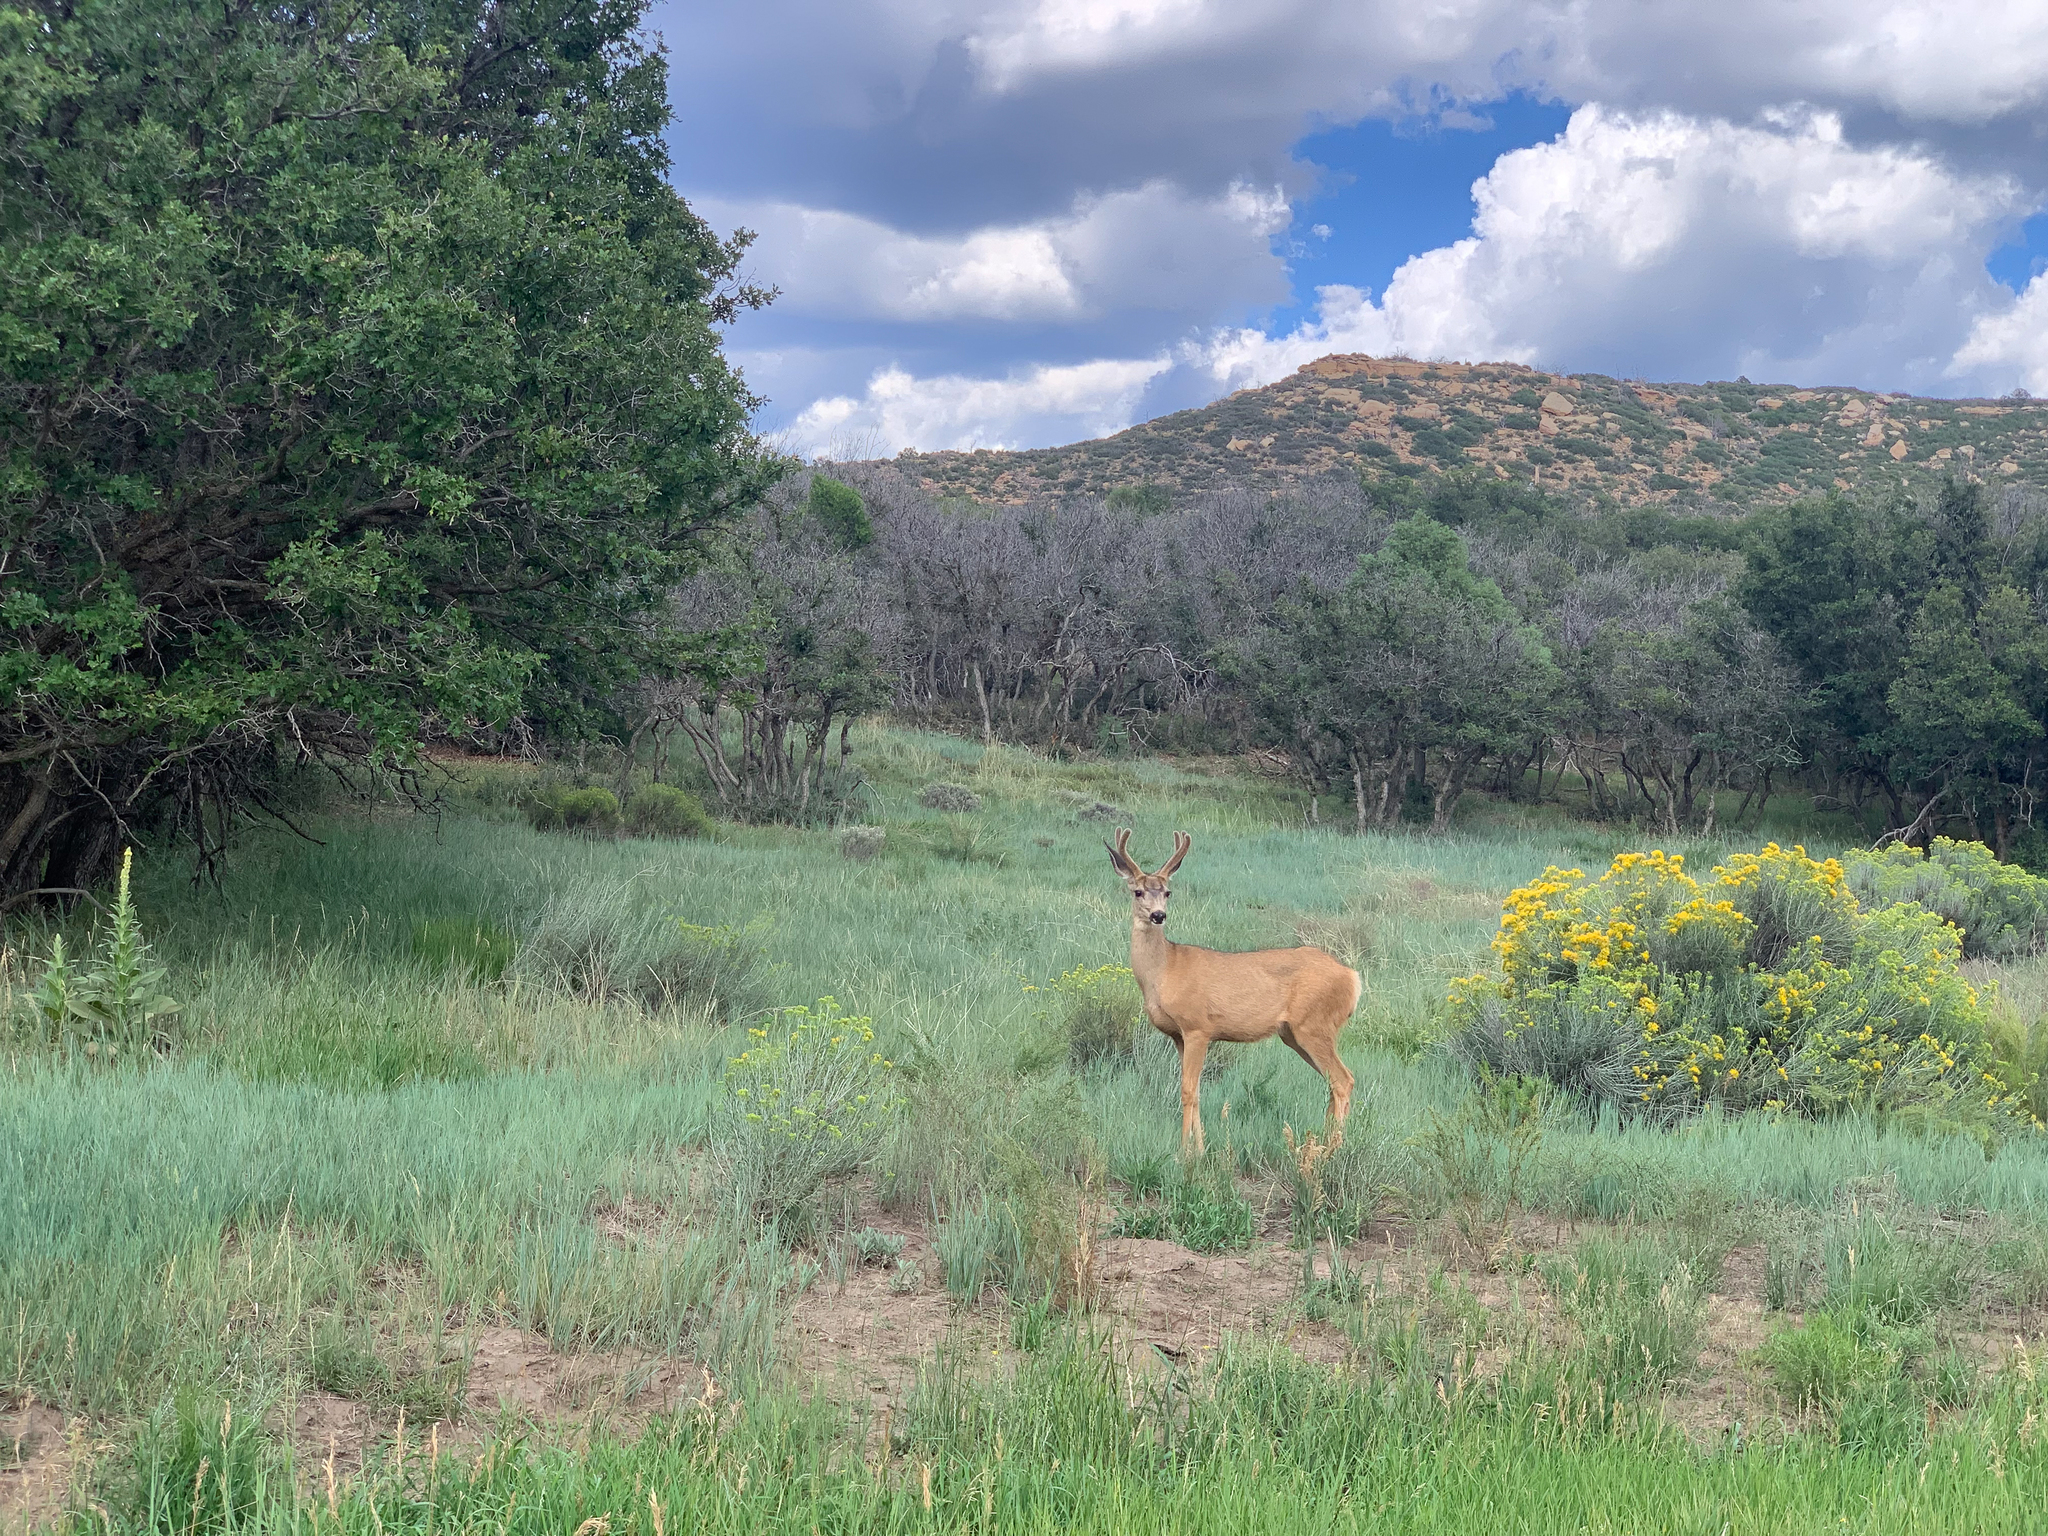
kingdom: Animalia
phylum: Chordata
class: Mammalia
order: Artiodactyla
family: Cervidae
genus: Odocoileus
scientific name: Odocoileus hemionus
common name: Mule deer
